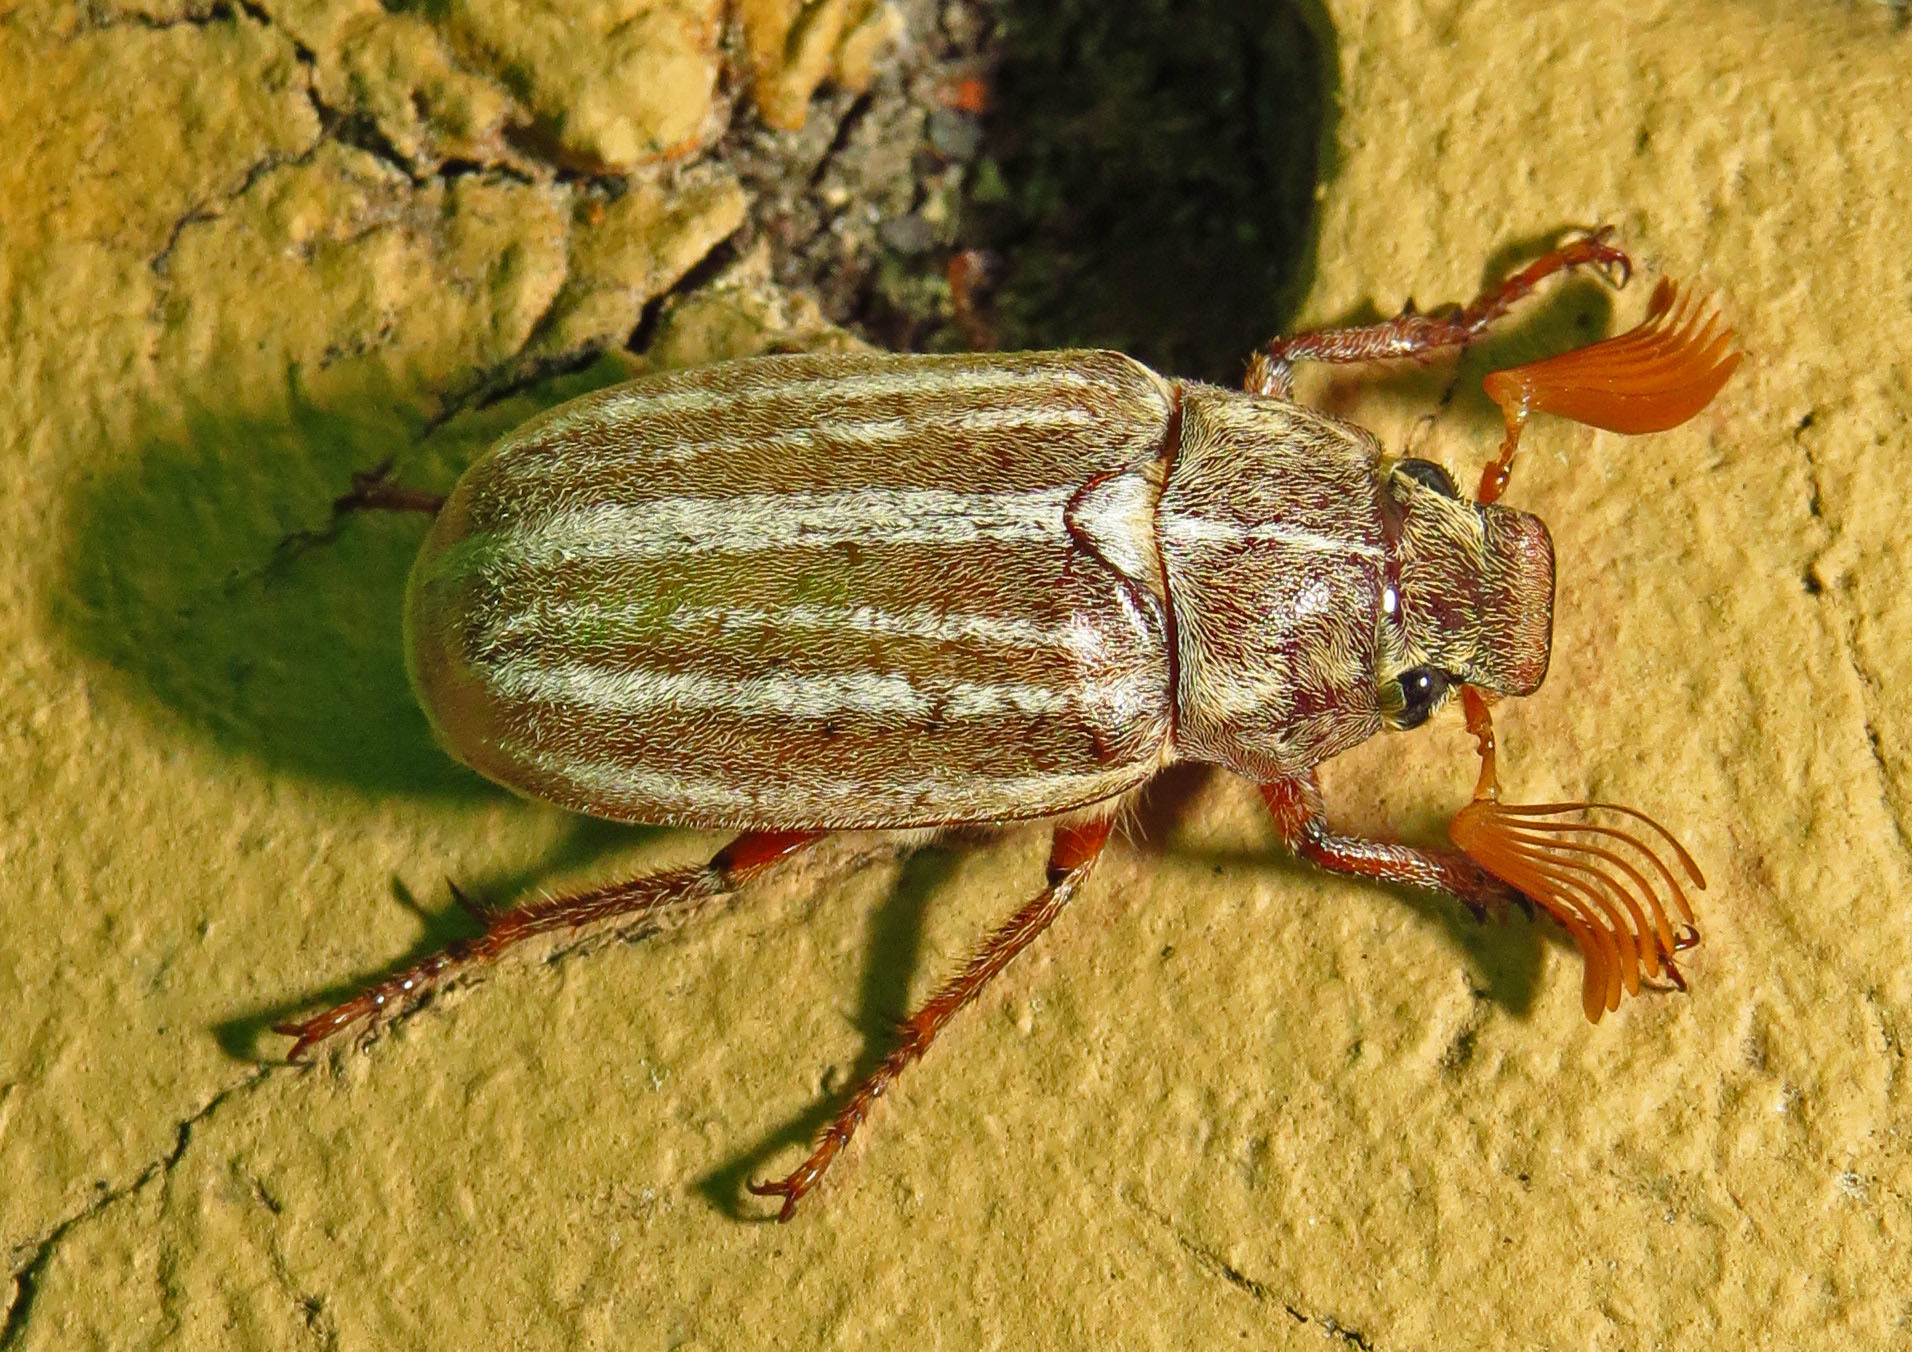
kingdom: Animalia
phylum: Arthropoda
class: Insecta
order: Coleoptera
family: Scarabaeidae
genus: Polyphylla
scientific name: Polyphylla occidentalis
